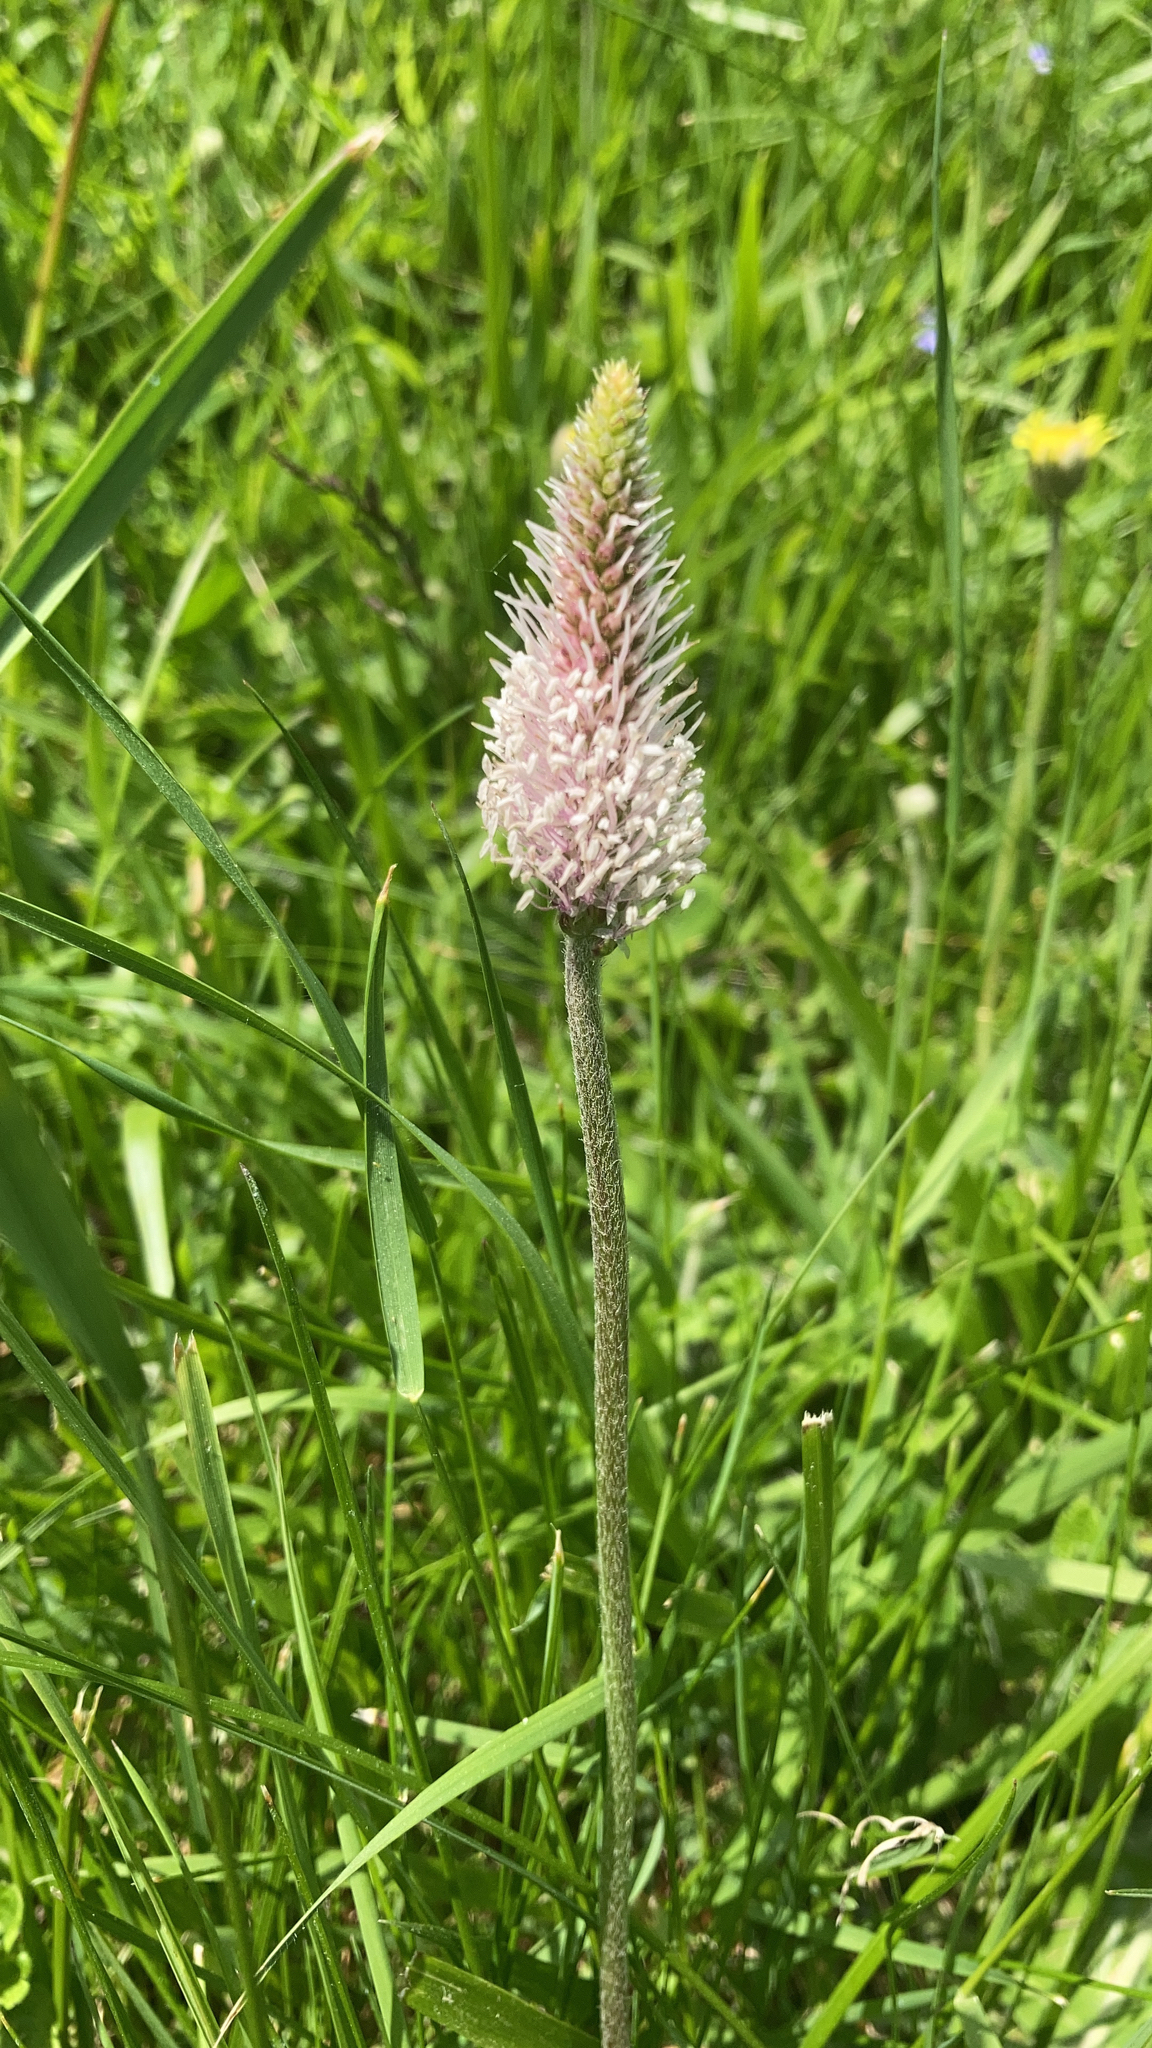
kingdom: Plantae
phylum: Tracheophyta
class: Magnoliopsida
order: Lamiales
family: Plantaginaceae
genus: Plantago
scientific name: Plantago media
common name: Hoary plantain
